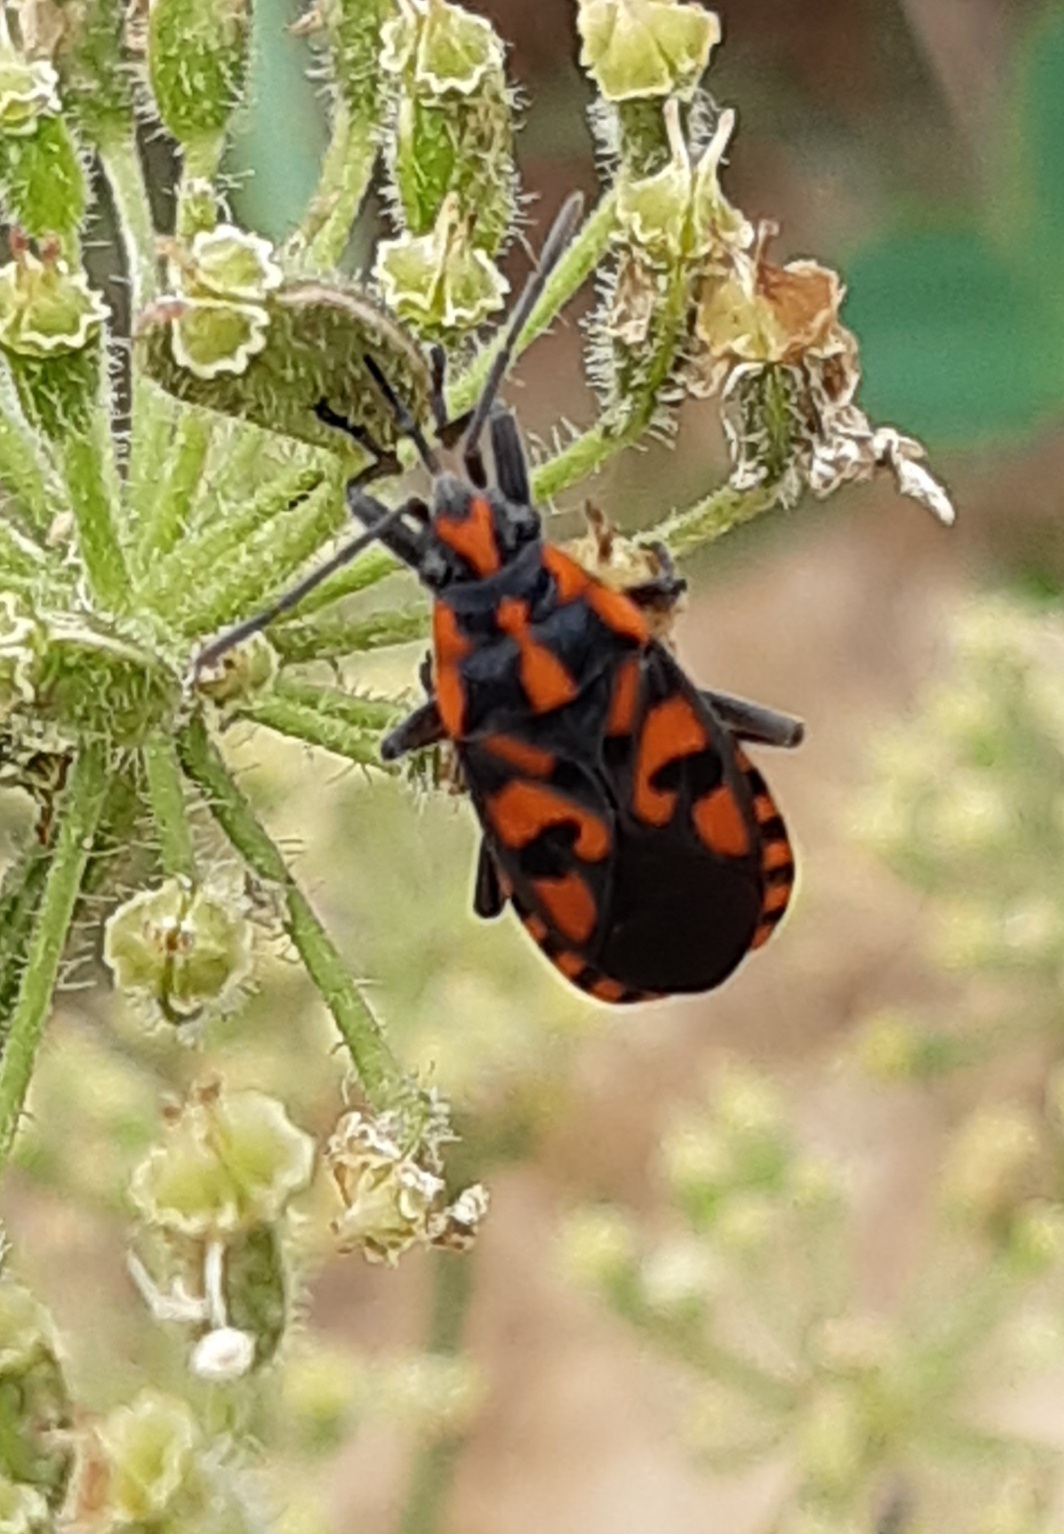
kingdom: Animalia
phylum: Arthropoda
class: Insecta
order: Hemiptera
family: Lygaeidae
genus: Spilostethus
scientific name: Spilostethus saxatilis
